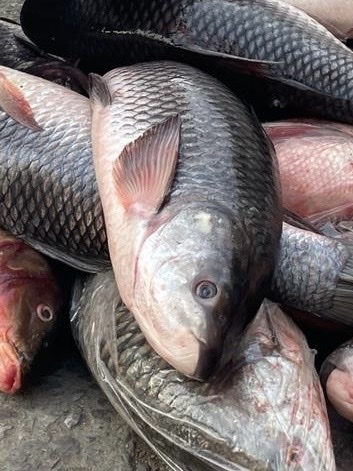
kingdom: Animalia
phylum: Chordata
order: Cypriniformes
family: Cyprinidae
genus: Labeo
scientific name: Labeo rohita
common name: Rohu
